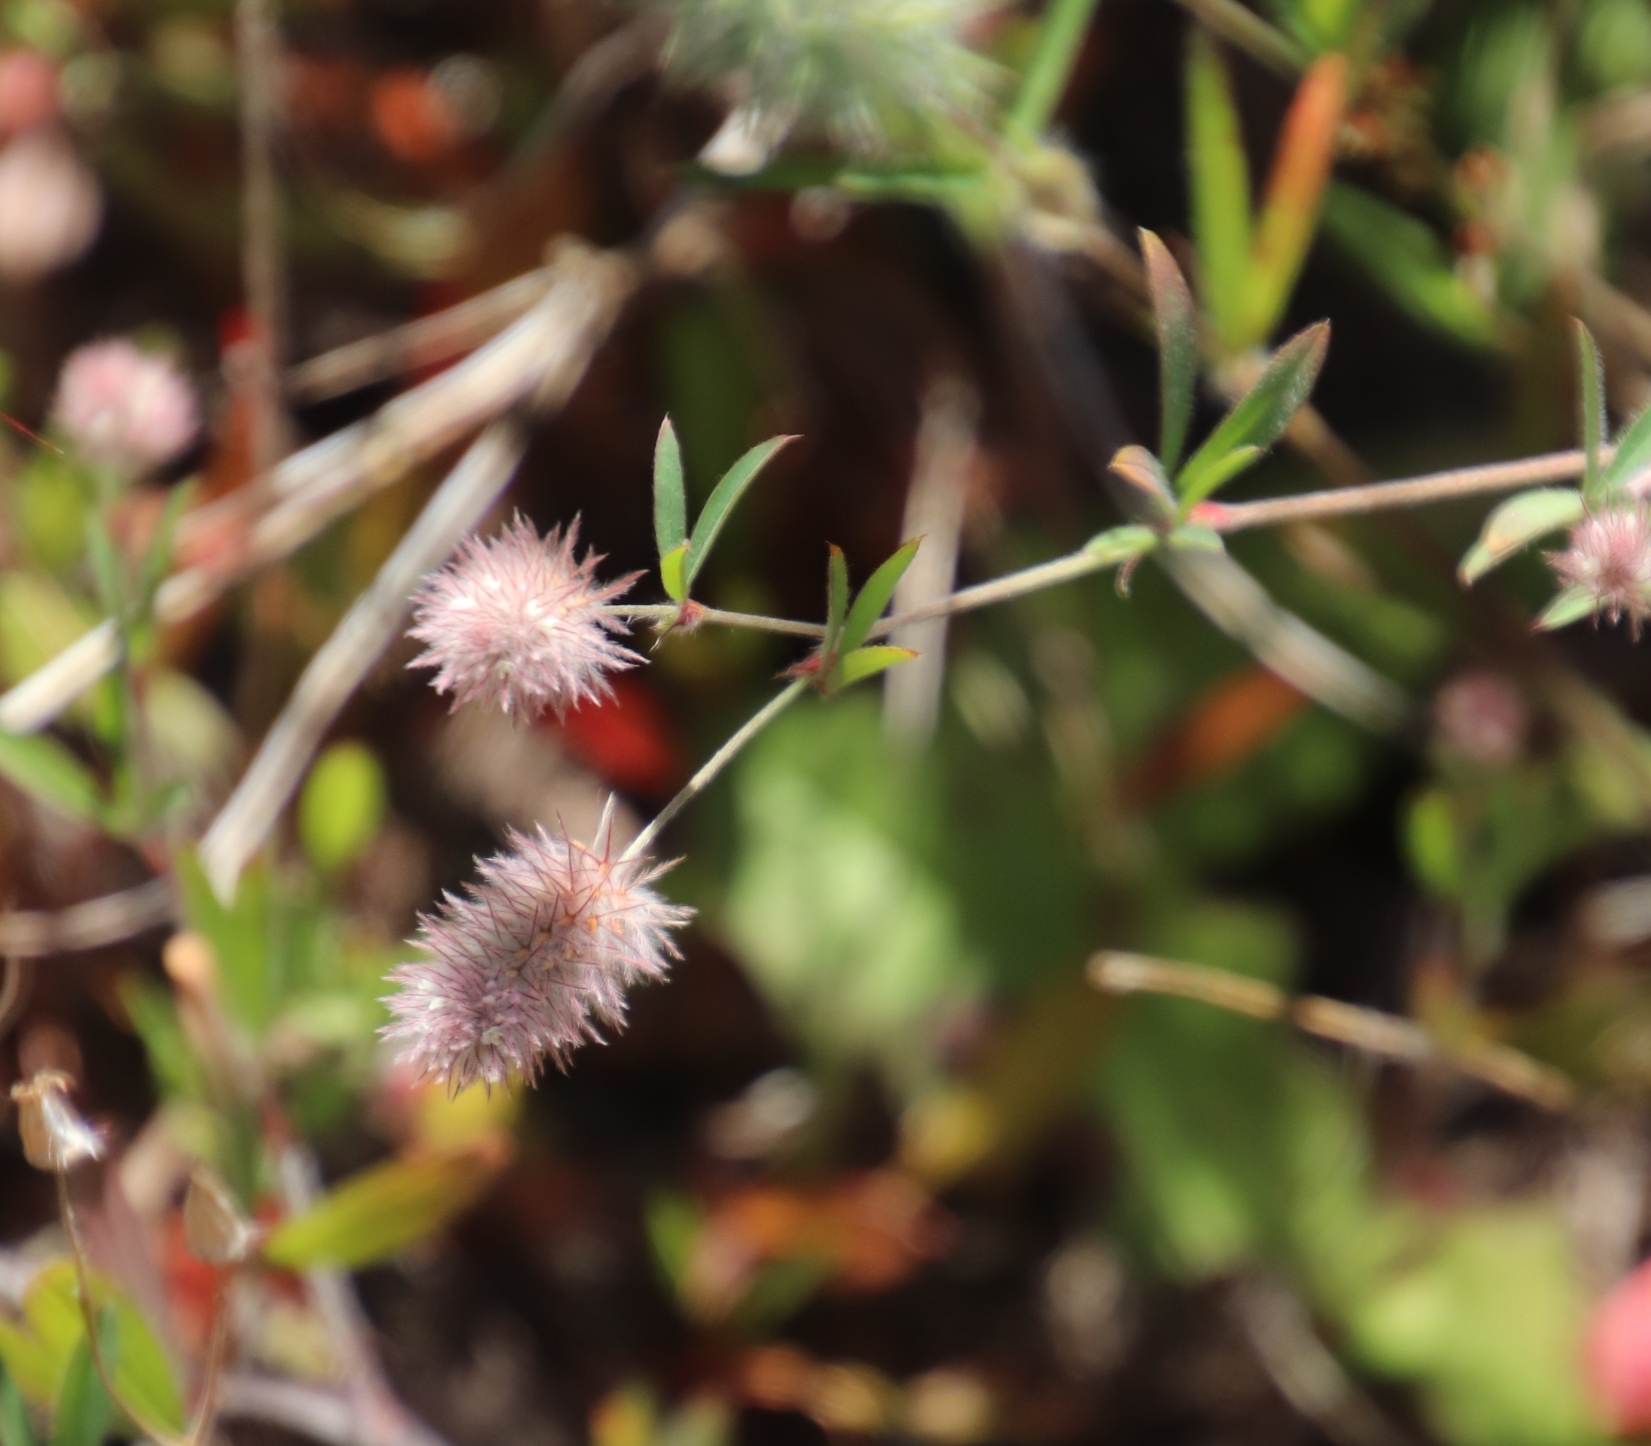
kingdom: Plantae
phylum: Tracheophyta
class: Magnoliopsida
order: Fabales
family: Fabaceae
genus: Trifolium
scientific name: Trifolium arvense
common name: Hare's-foot clover
